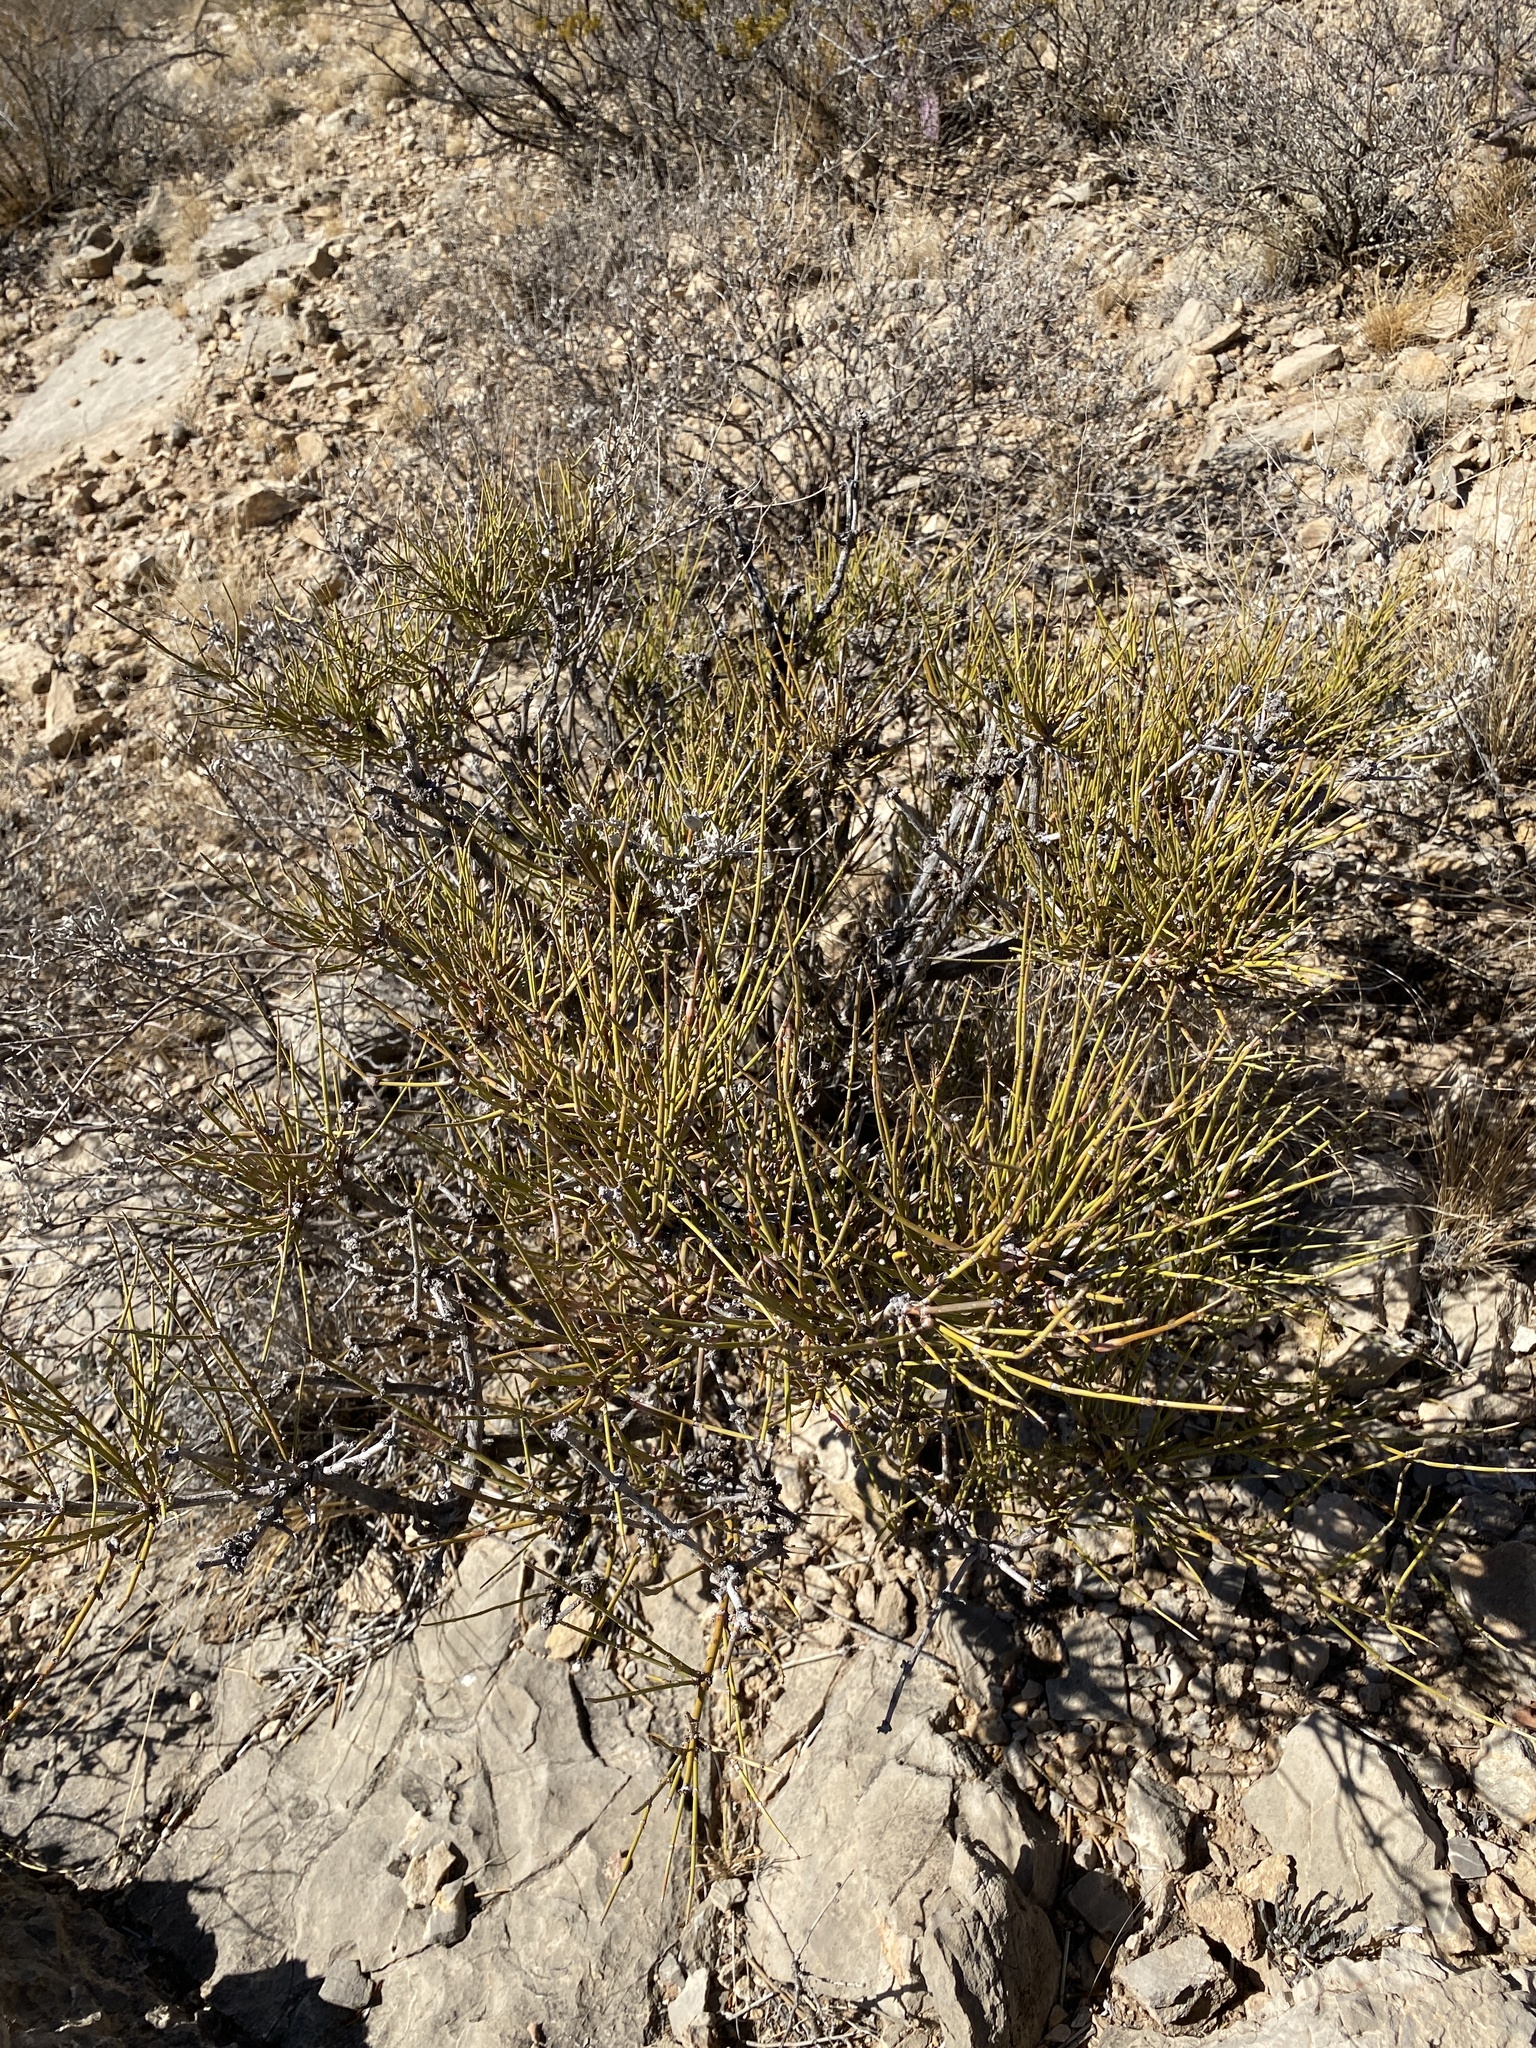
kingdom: Plantae
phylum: Tracheophyta
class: Gnetopsida
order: Ephedrales
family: Ephedraceae
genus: Ephedra
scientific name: Ephedra trifurca
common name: Mexican-tea
